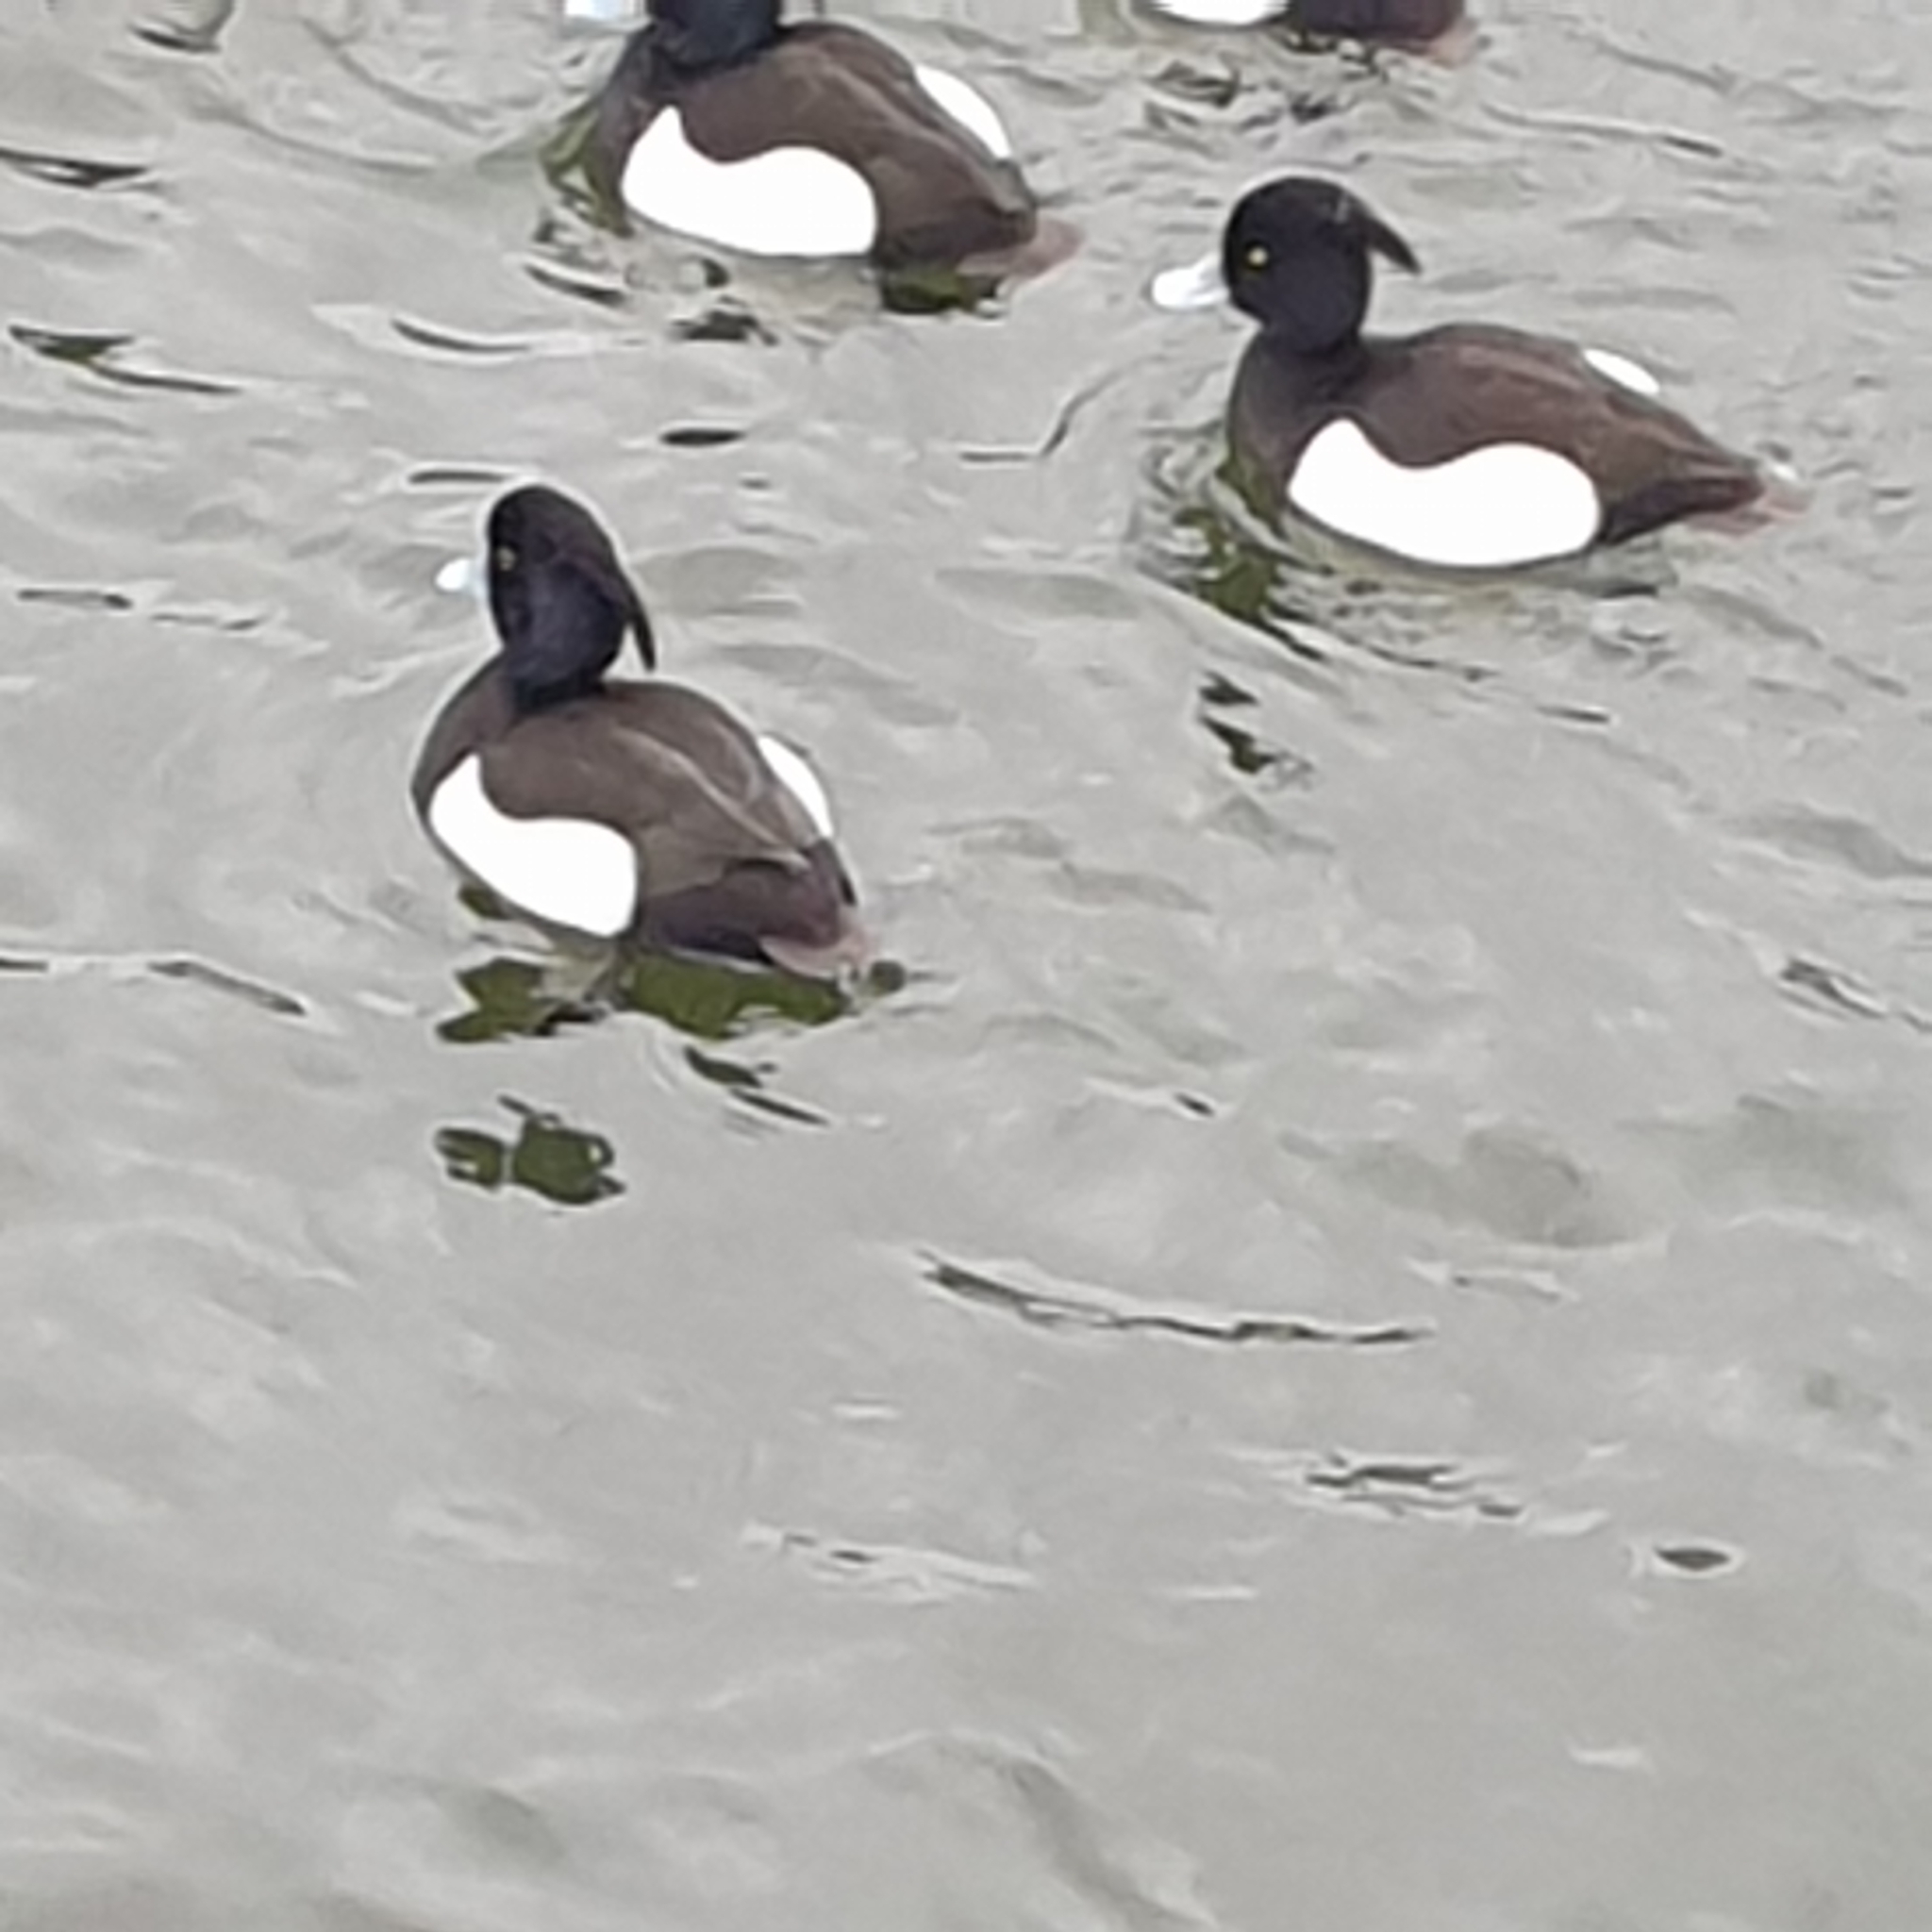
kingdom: Animalia
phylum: Chordata
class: Aves
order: Anseriformes
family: Anatidae
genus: Aythya
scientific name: Aythya fuligula
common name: Tufted duck
